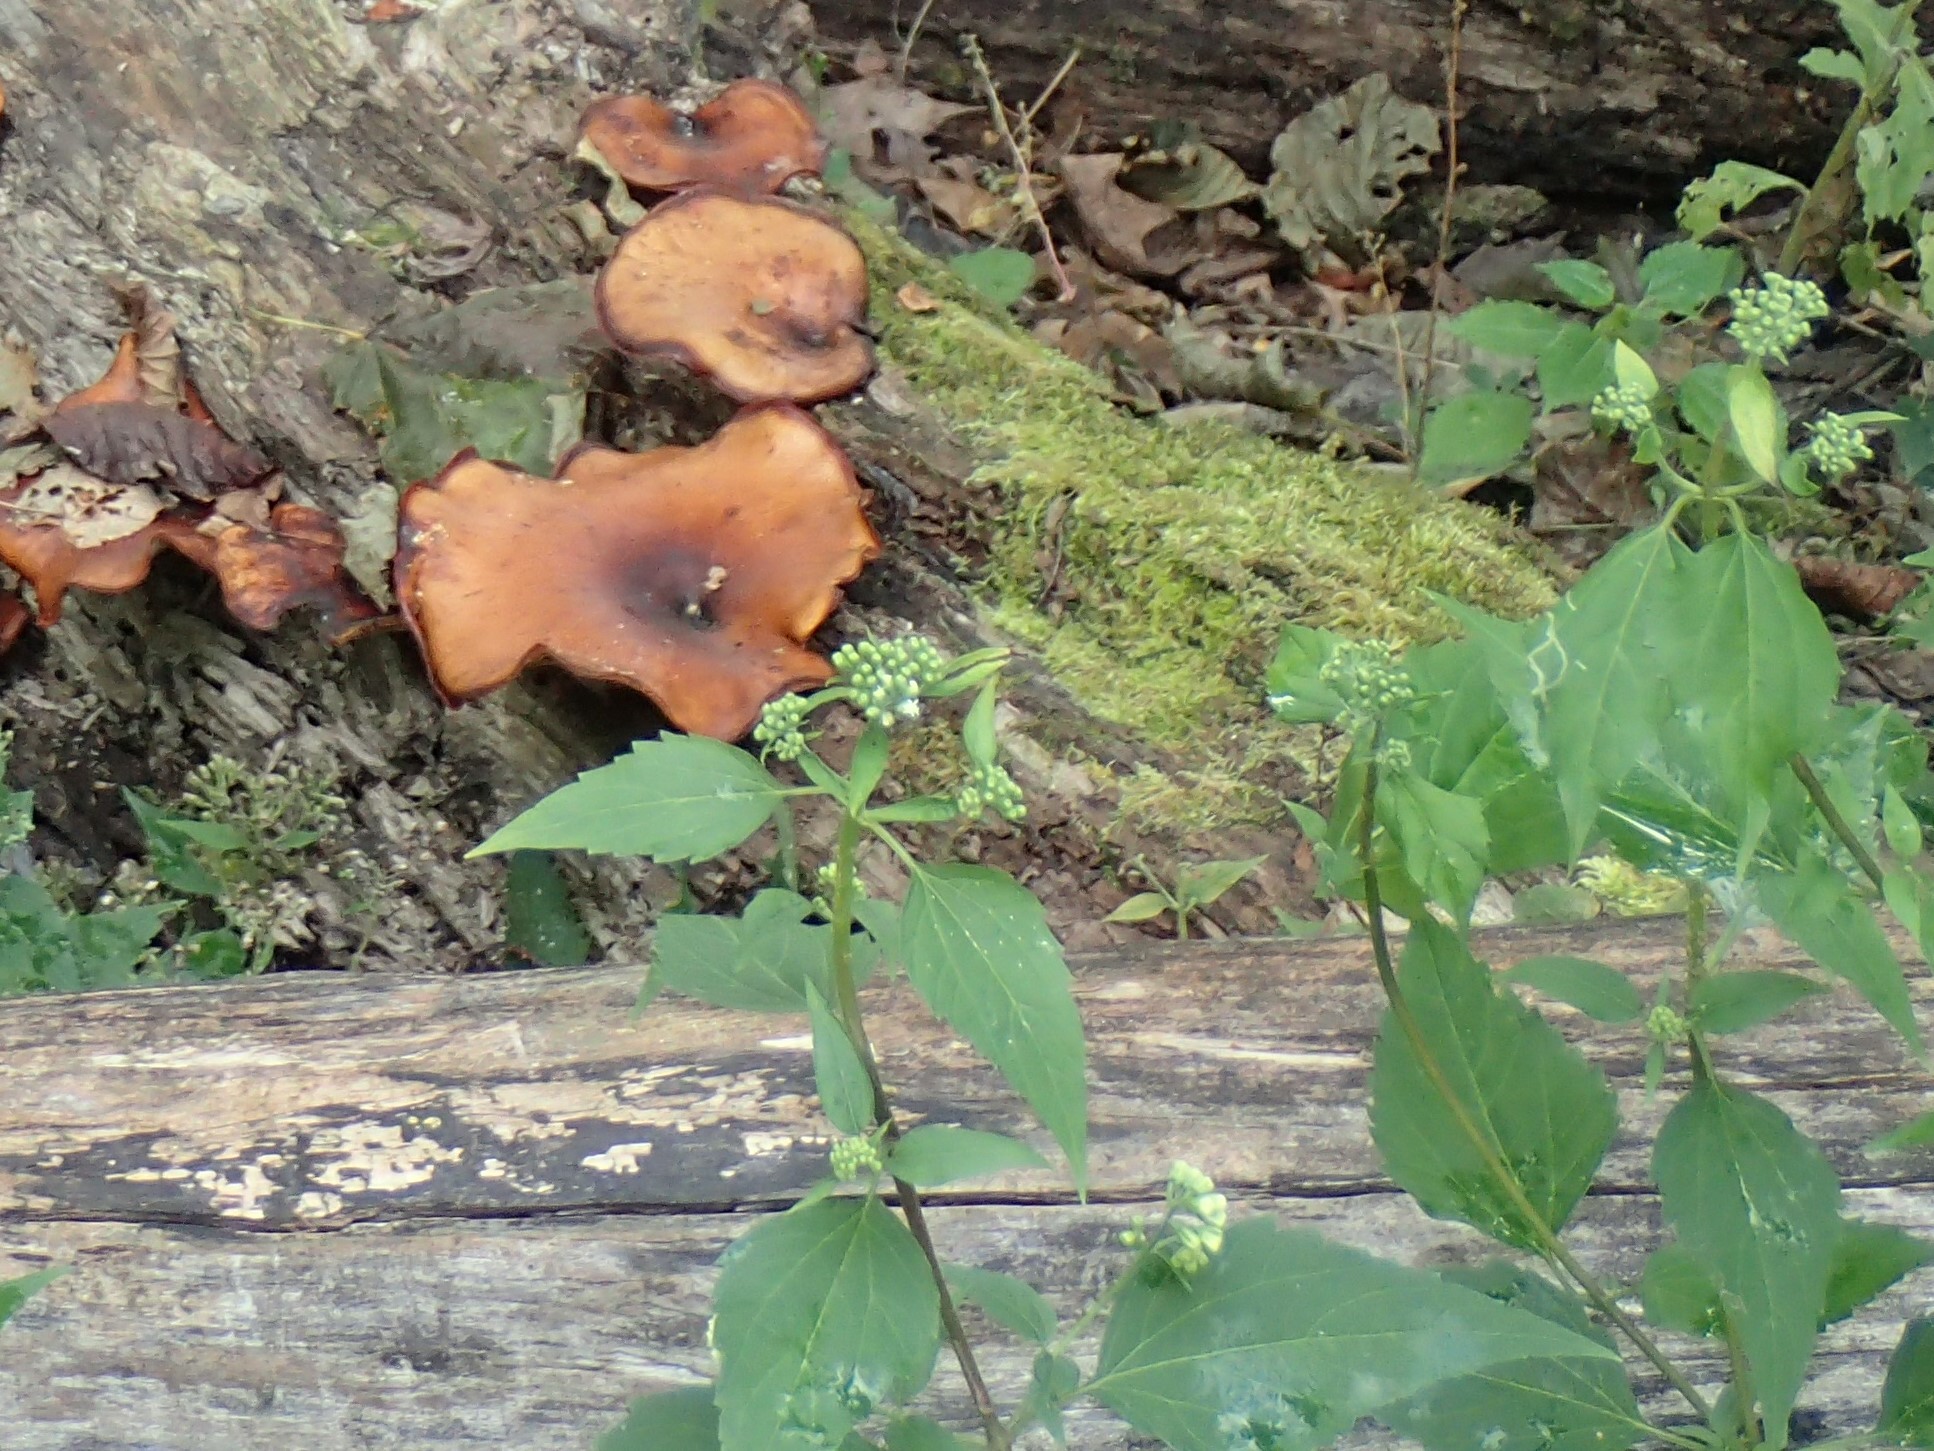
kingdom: Fungi
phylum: Basidiomycota
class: Agaricomycetes
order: Polyporales
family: Polyporaceae
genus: Picipes
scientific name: Picipes badius
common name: Bay polypore
